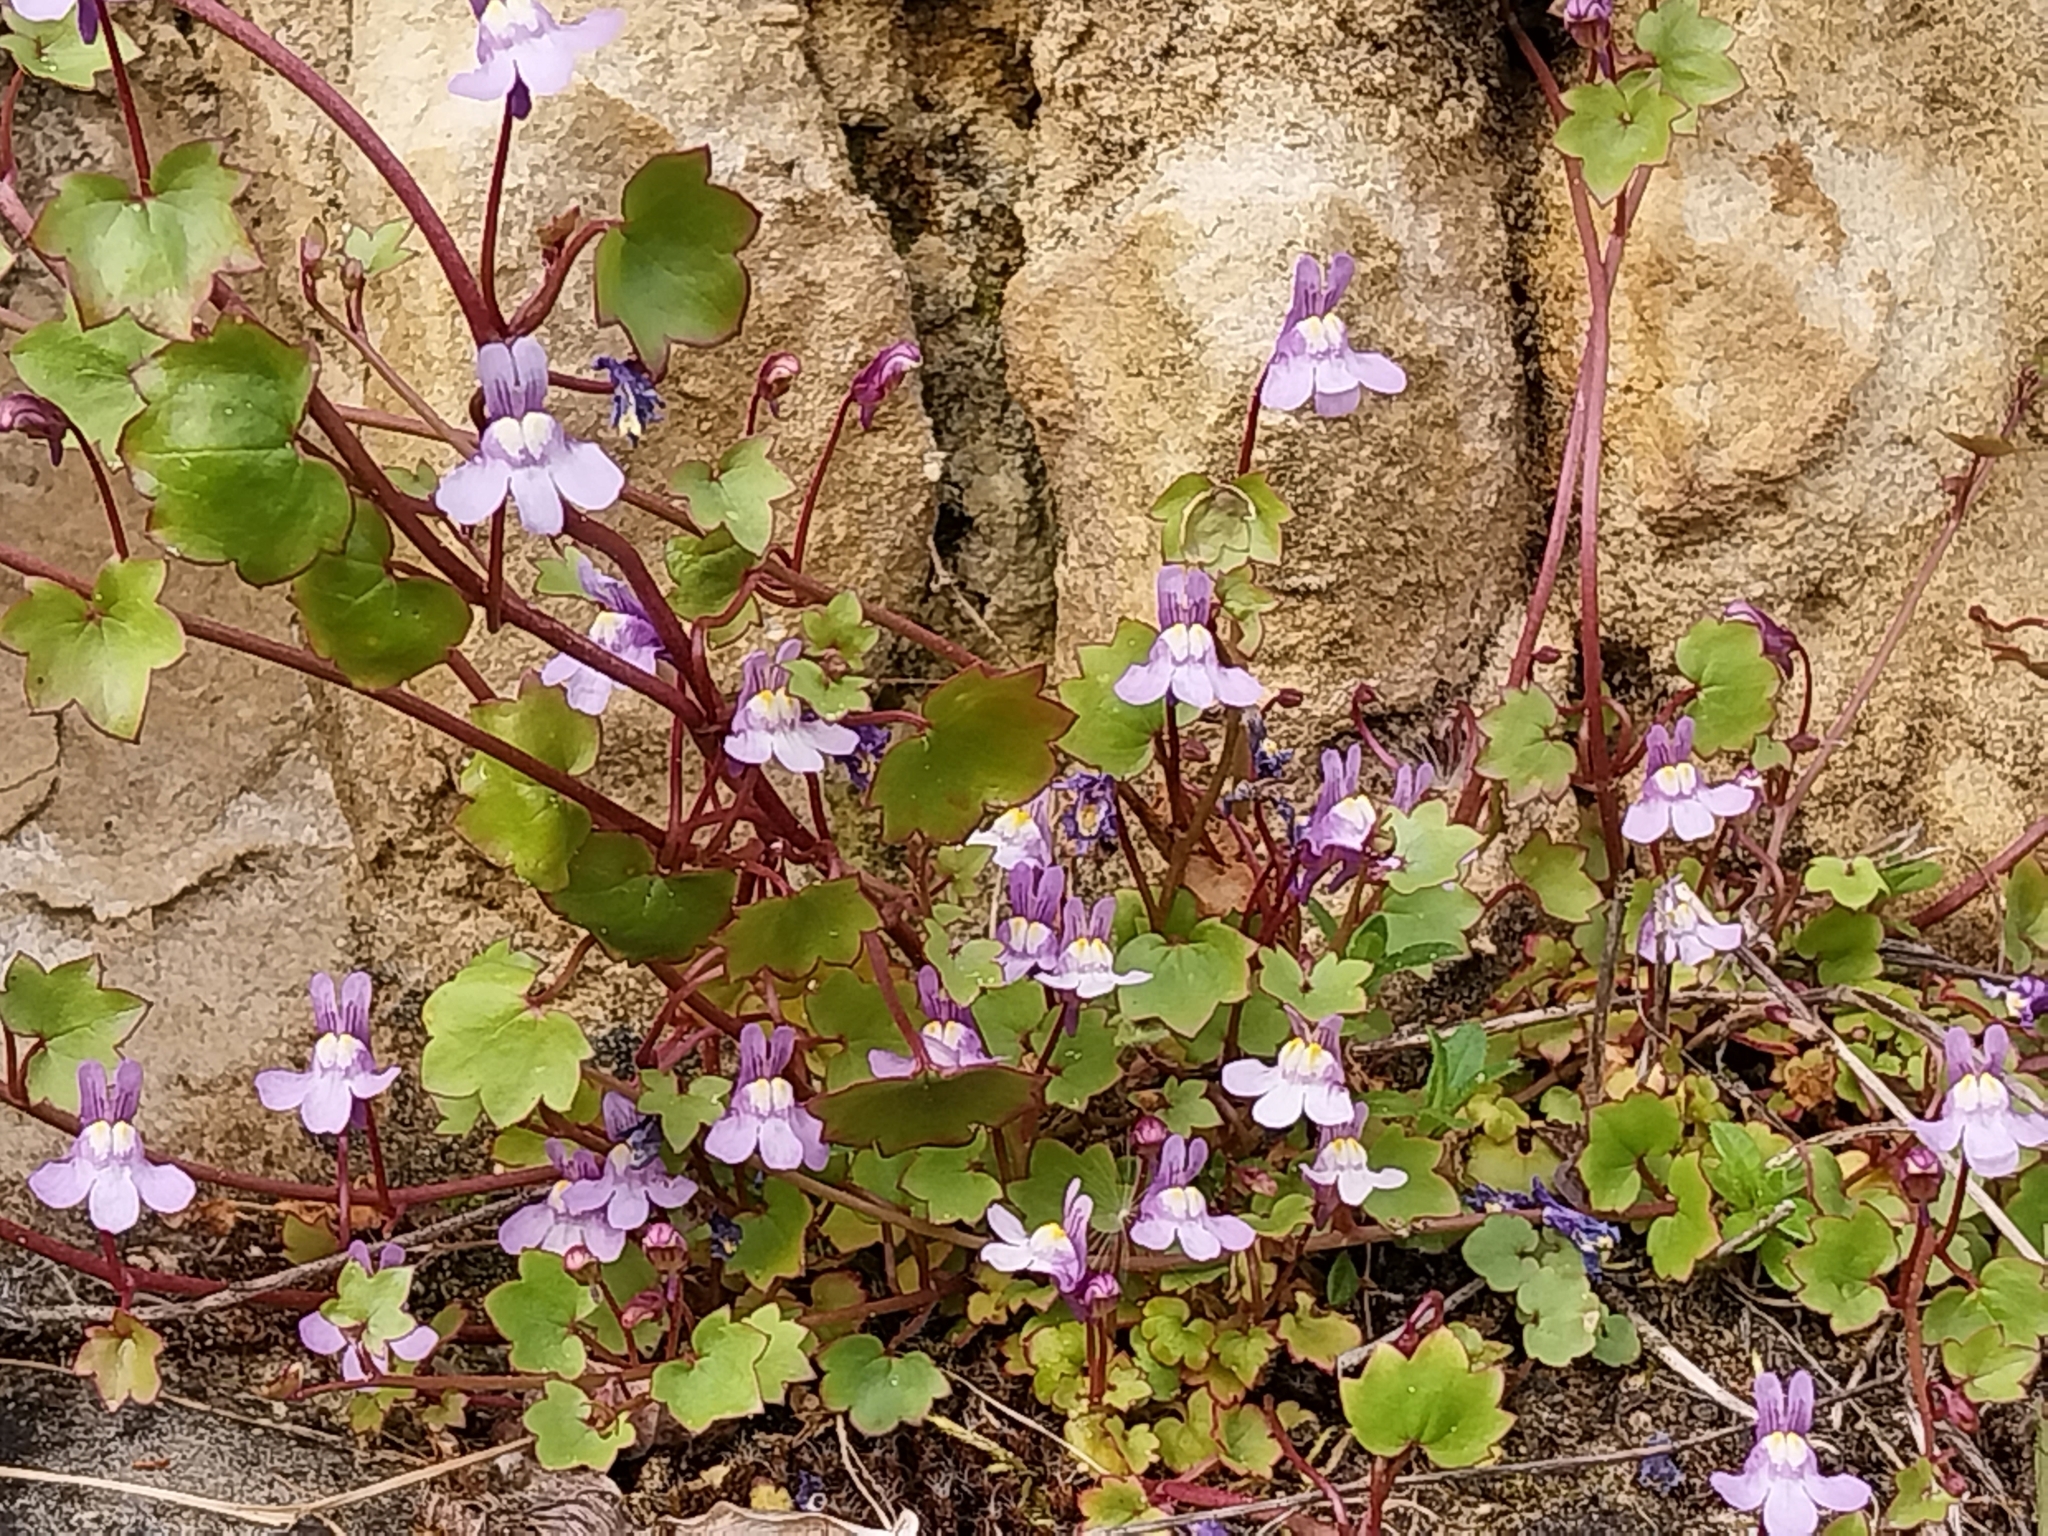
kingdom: Plantae
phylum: Tracheophyta
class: Magnoliopsida
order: Lamiales
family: Plantaginaceae
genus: Cymbalaria
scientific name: Cymbalaria muralis
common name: Ivy-leaved toadflax
